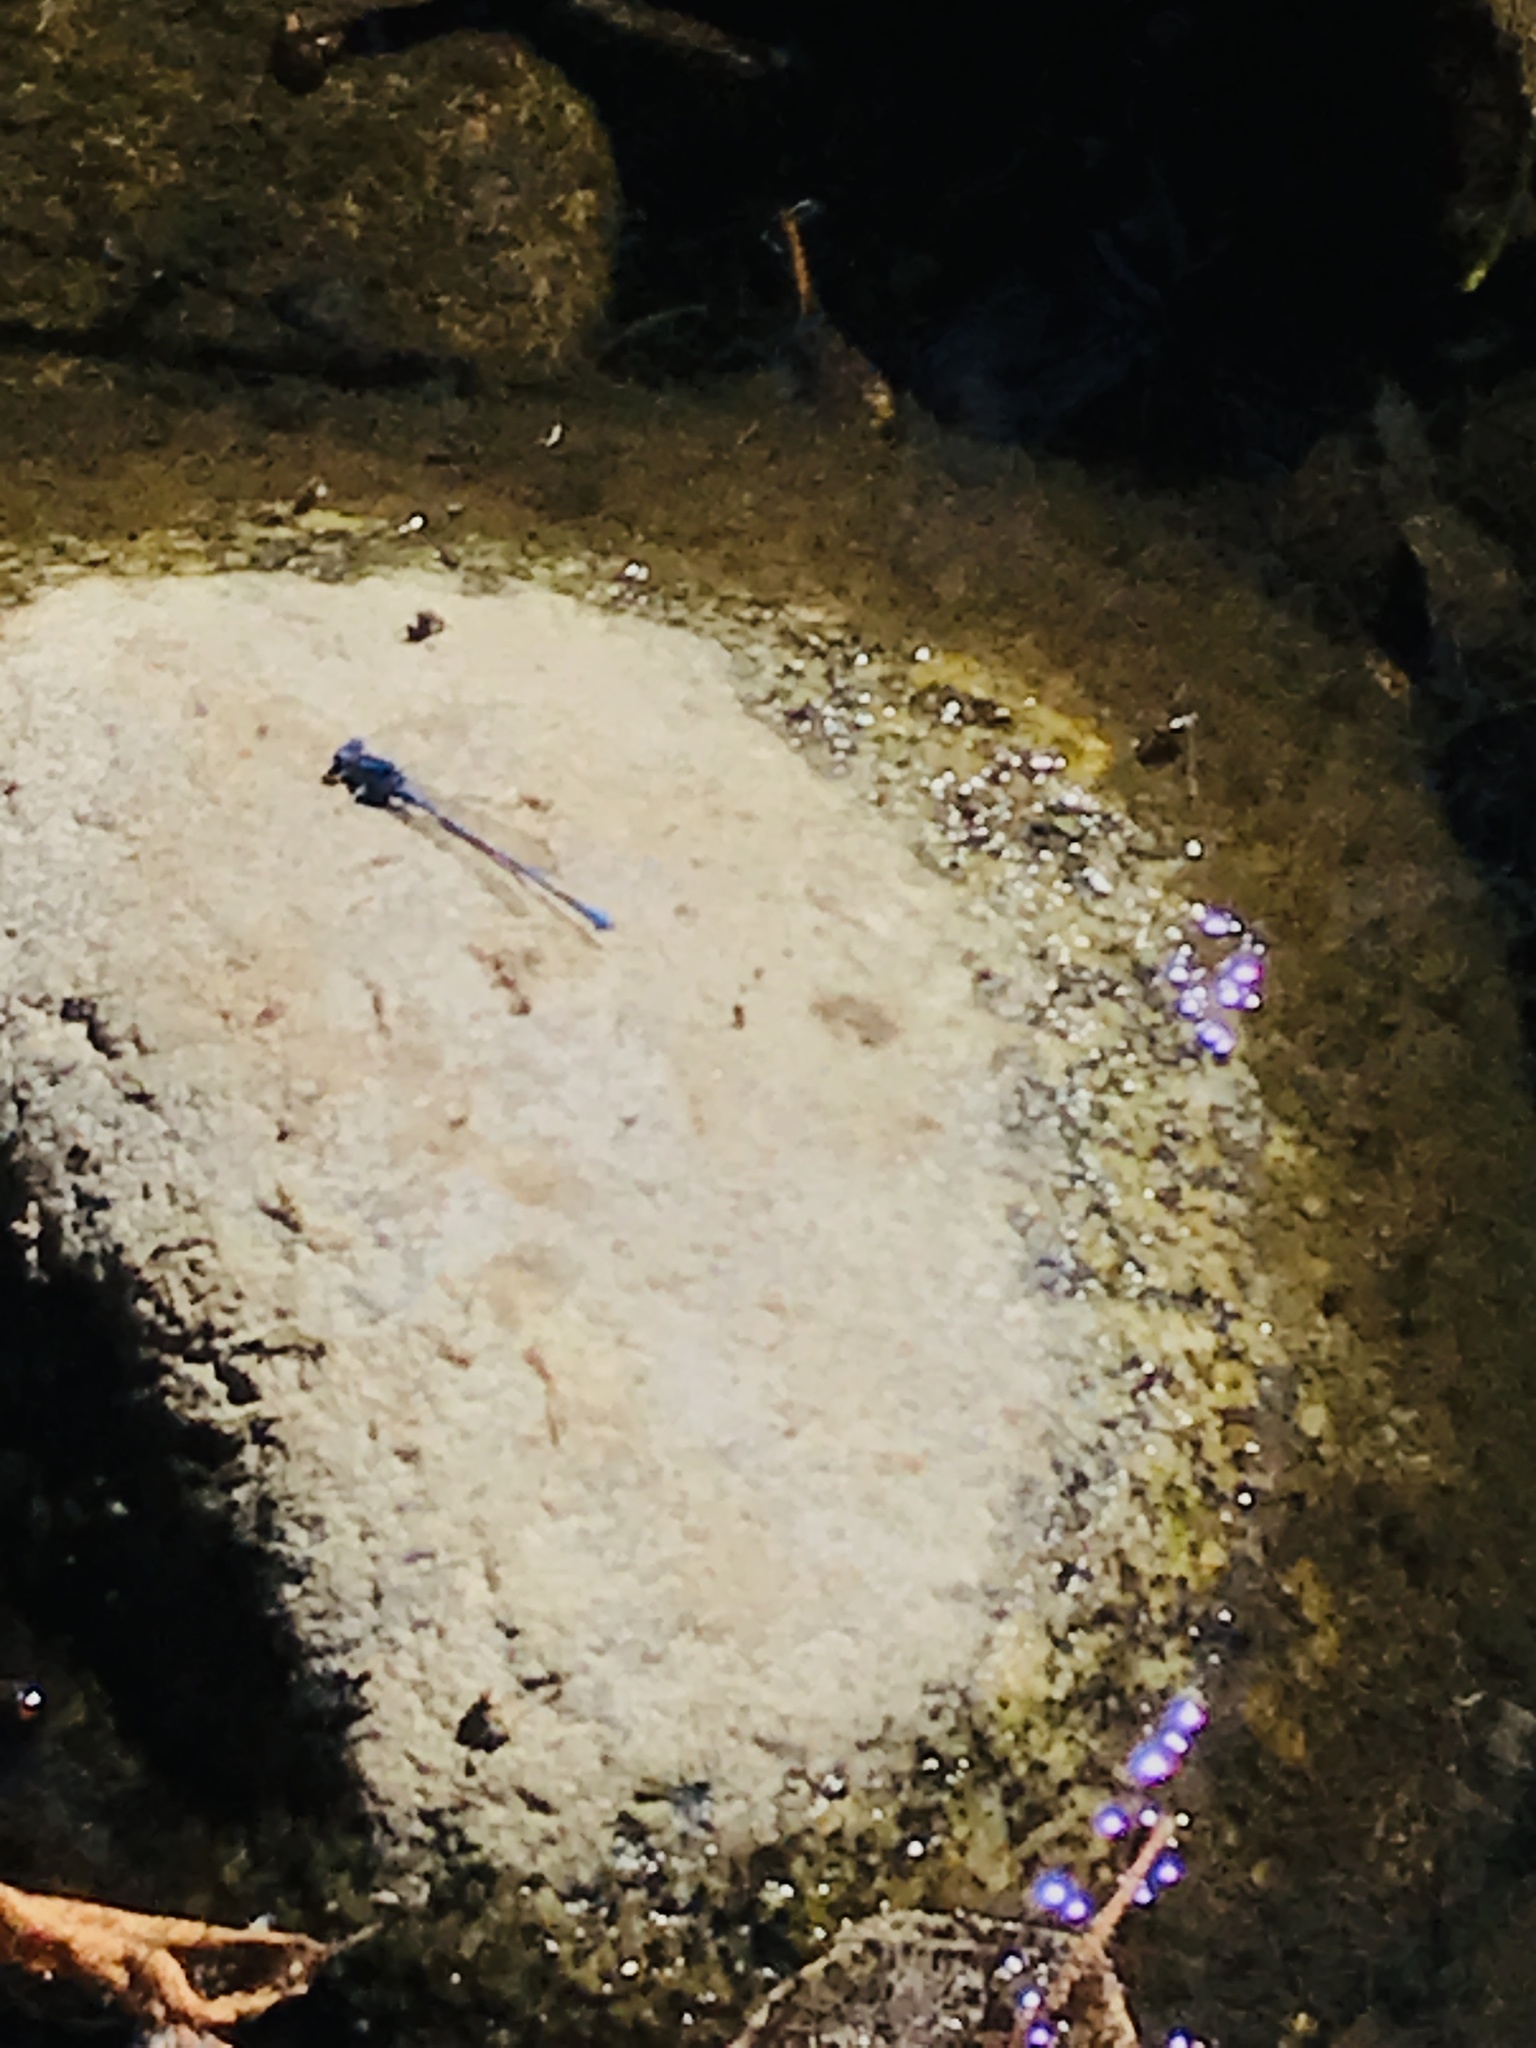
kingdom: Animalia
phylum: Arthropoda
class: Insecta
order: Odonata
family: Coenagrionidae
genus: Argia
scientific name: Argia vivida
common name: Vivid dancer
